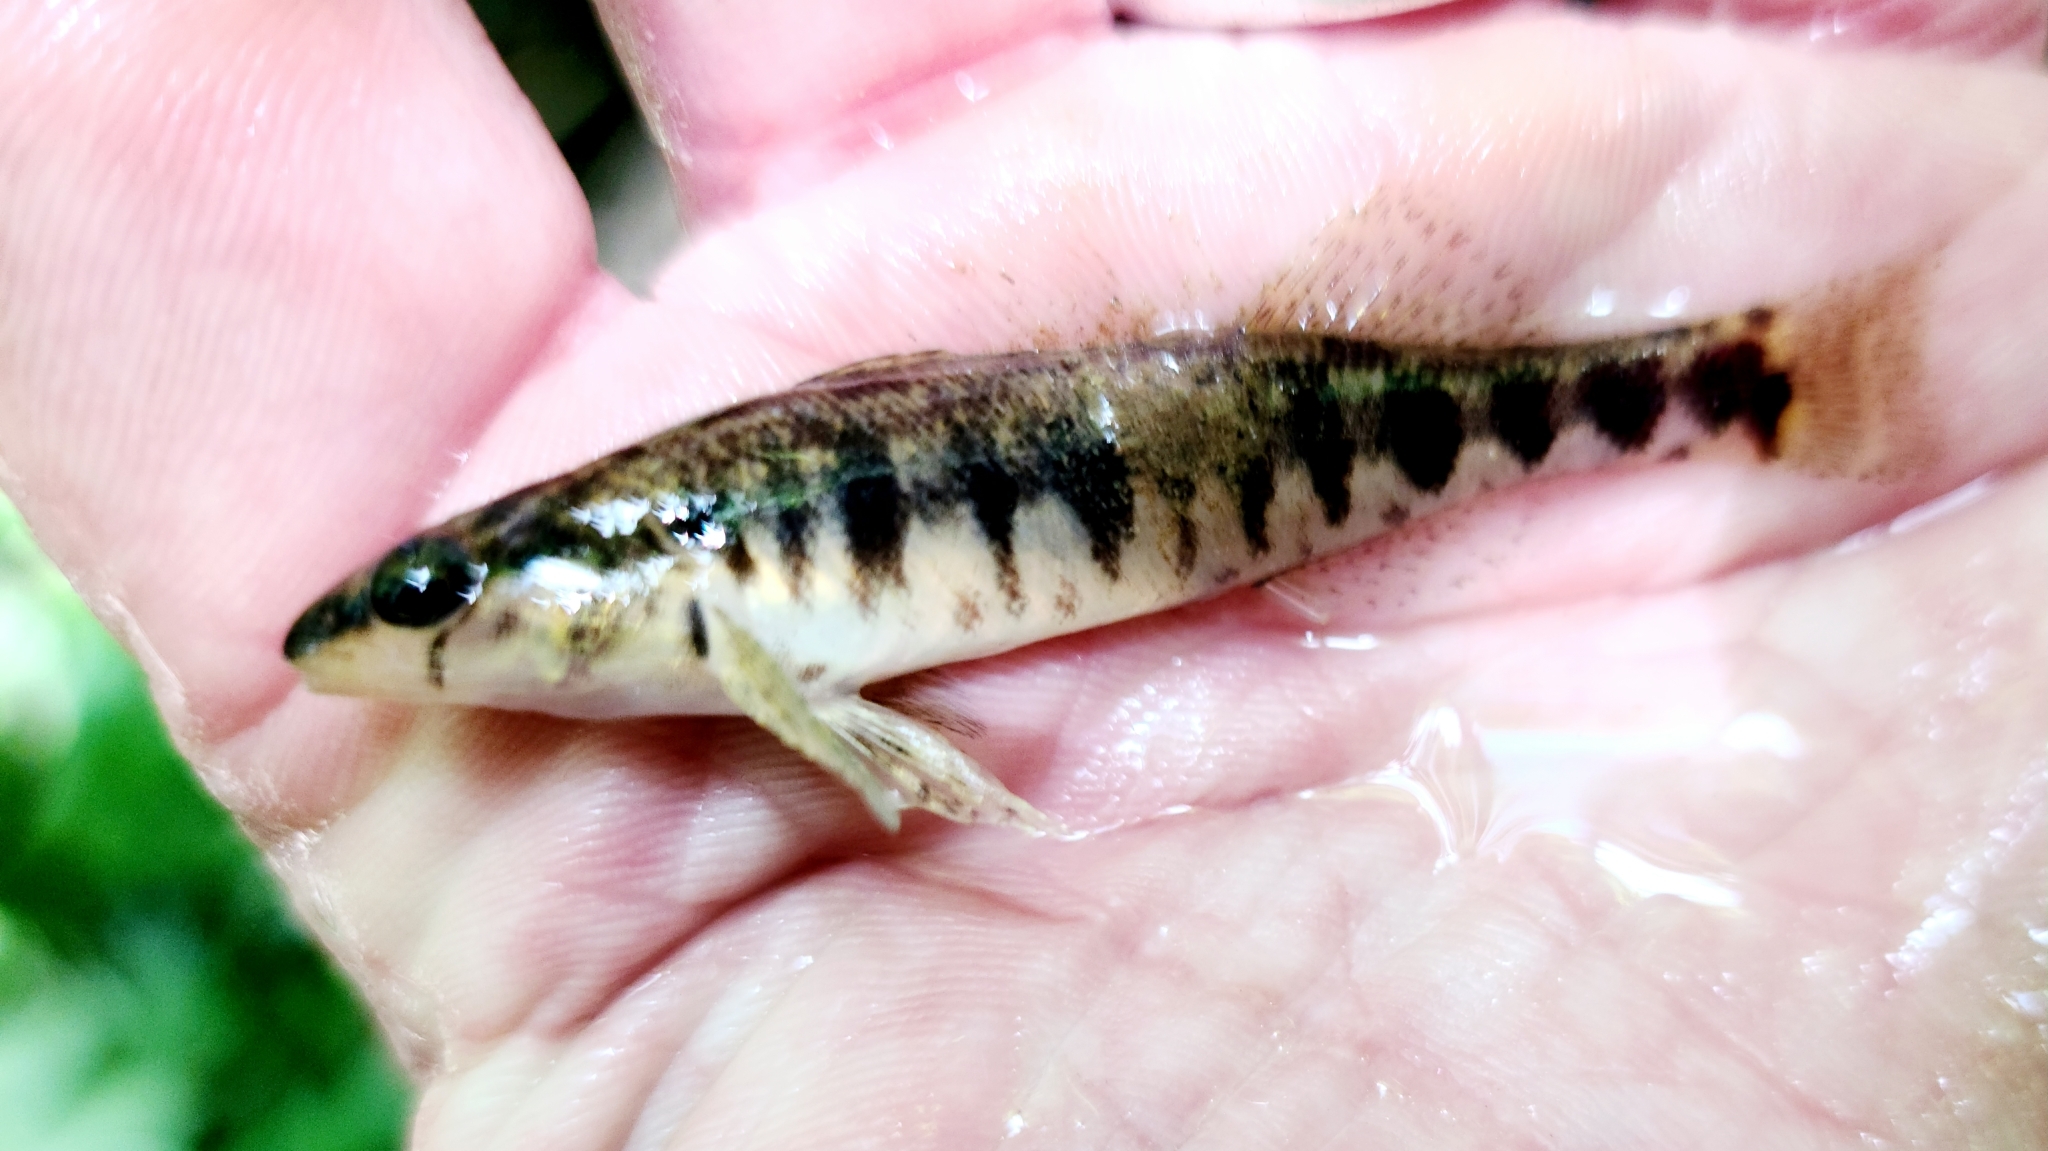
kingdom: Animalia
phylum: Chordata
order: Perciformes
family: Percidae
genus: Percina
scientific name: Percina nigrofasciata
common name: Blackbanded darter
